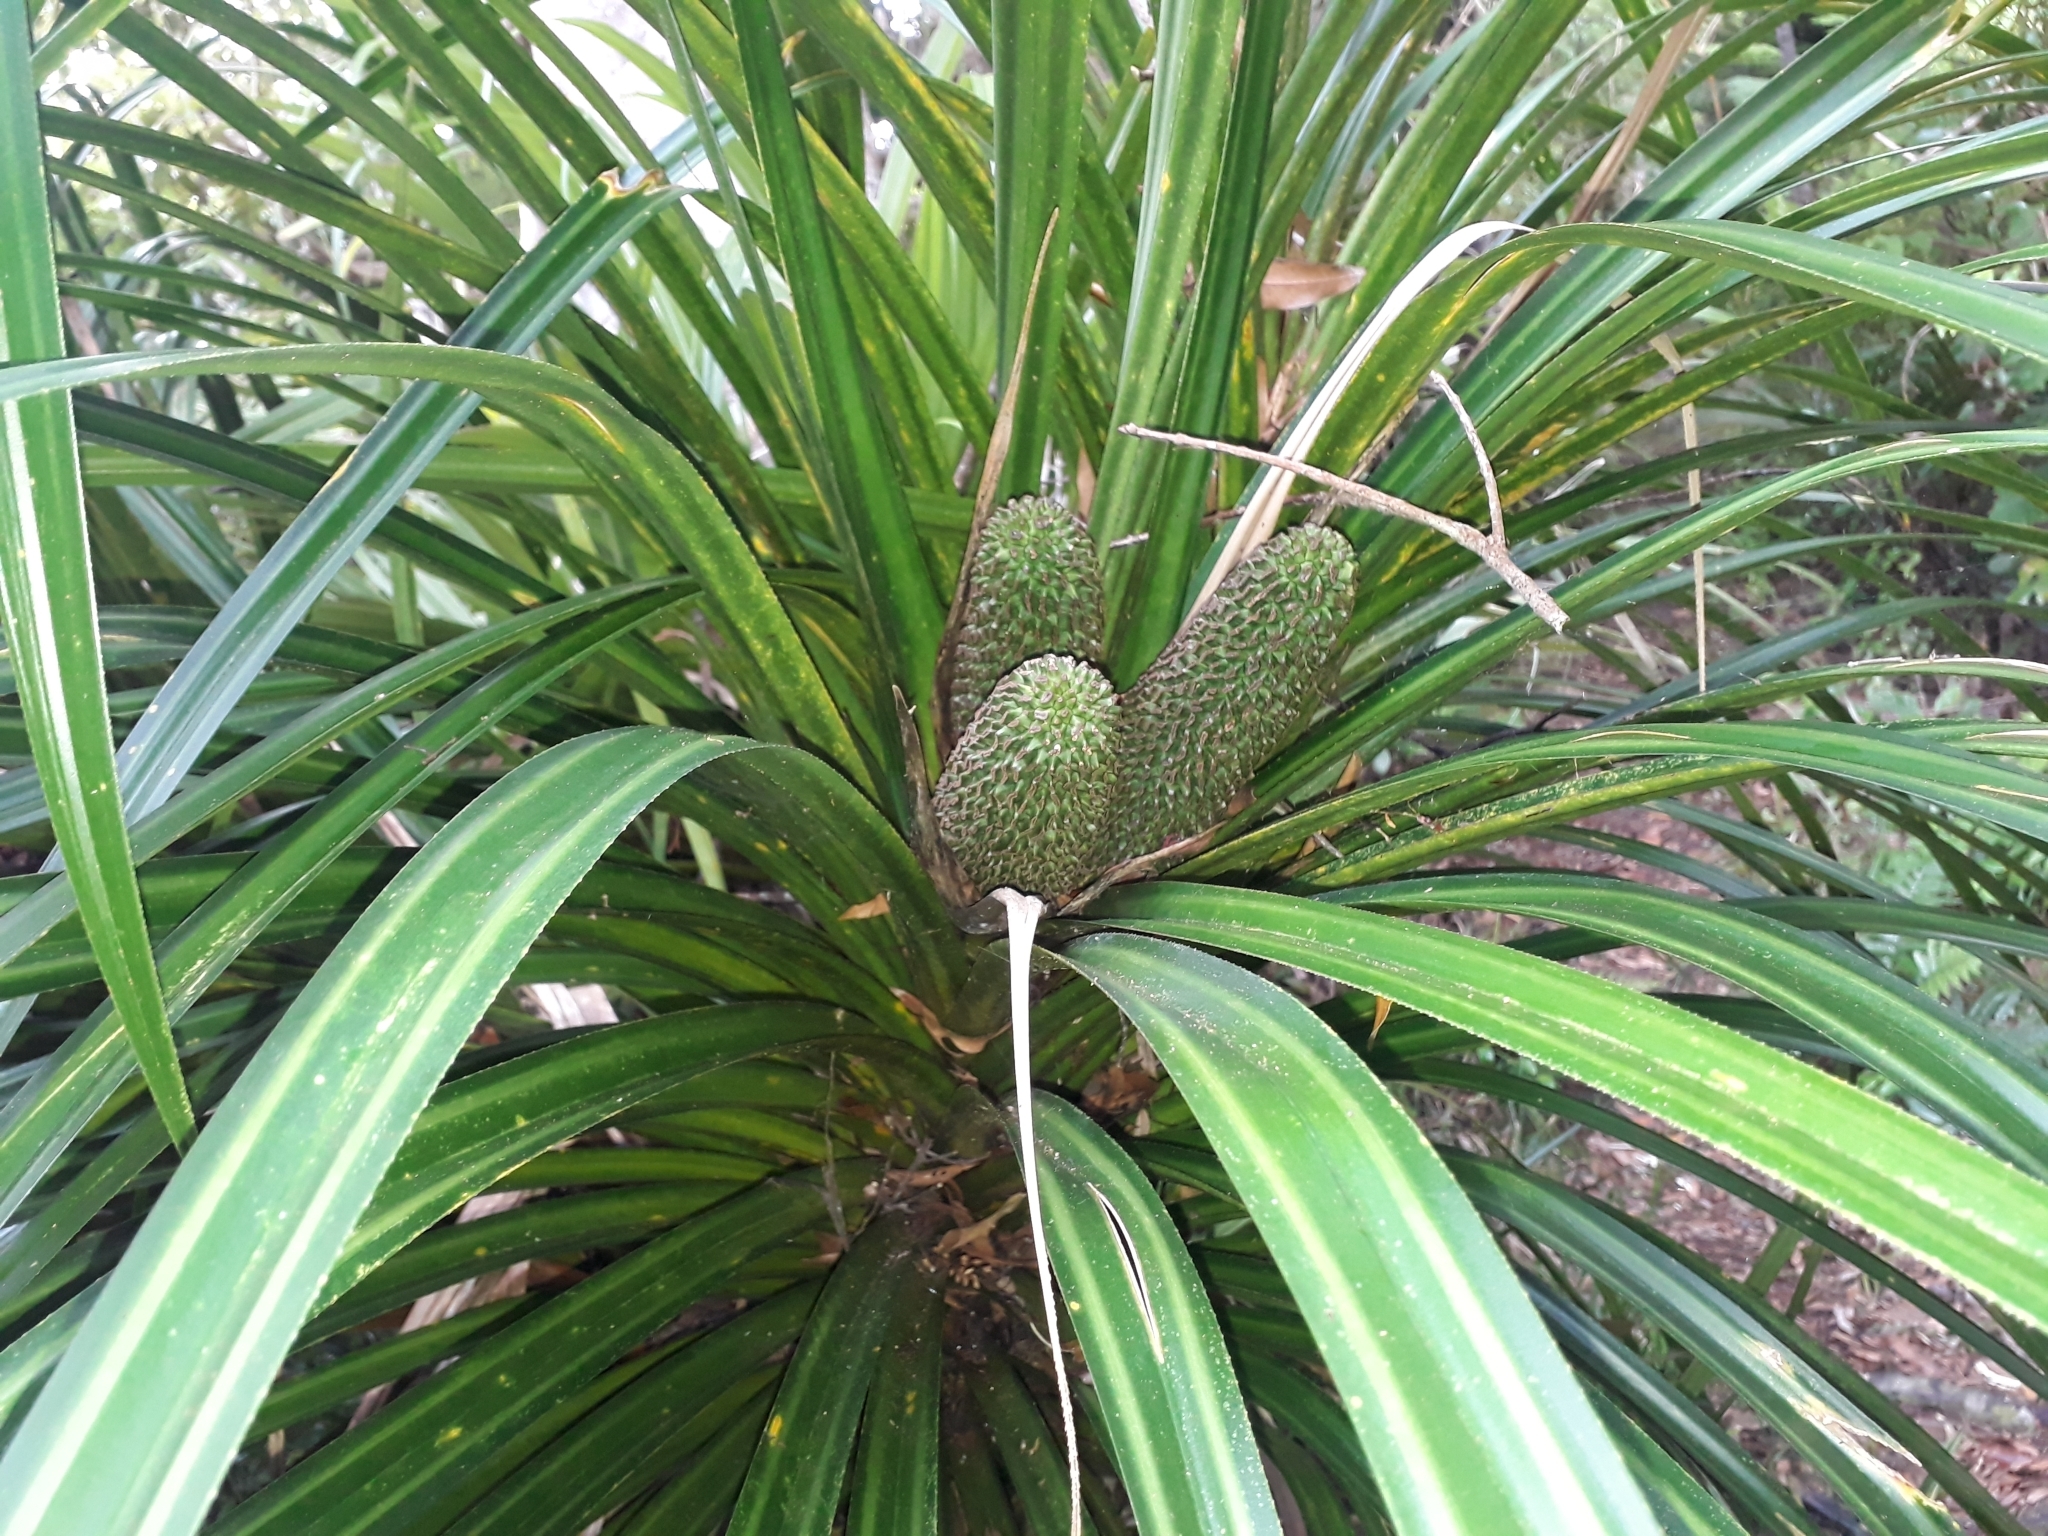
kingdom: Plantae
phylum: Tracheophyta
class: Liliopsida
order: Pandanales
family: Pandanaceae
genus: Freycinetia
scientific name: Freycinetia banksii
